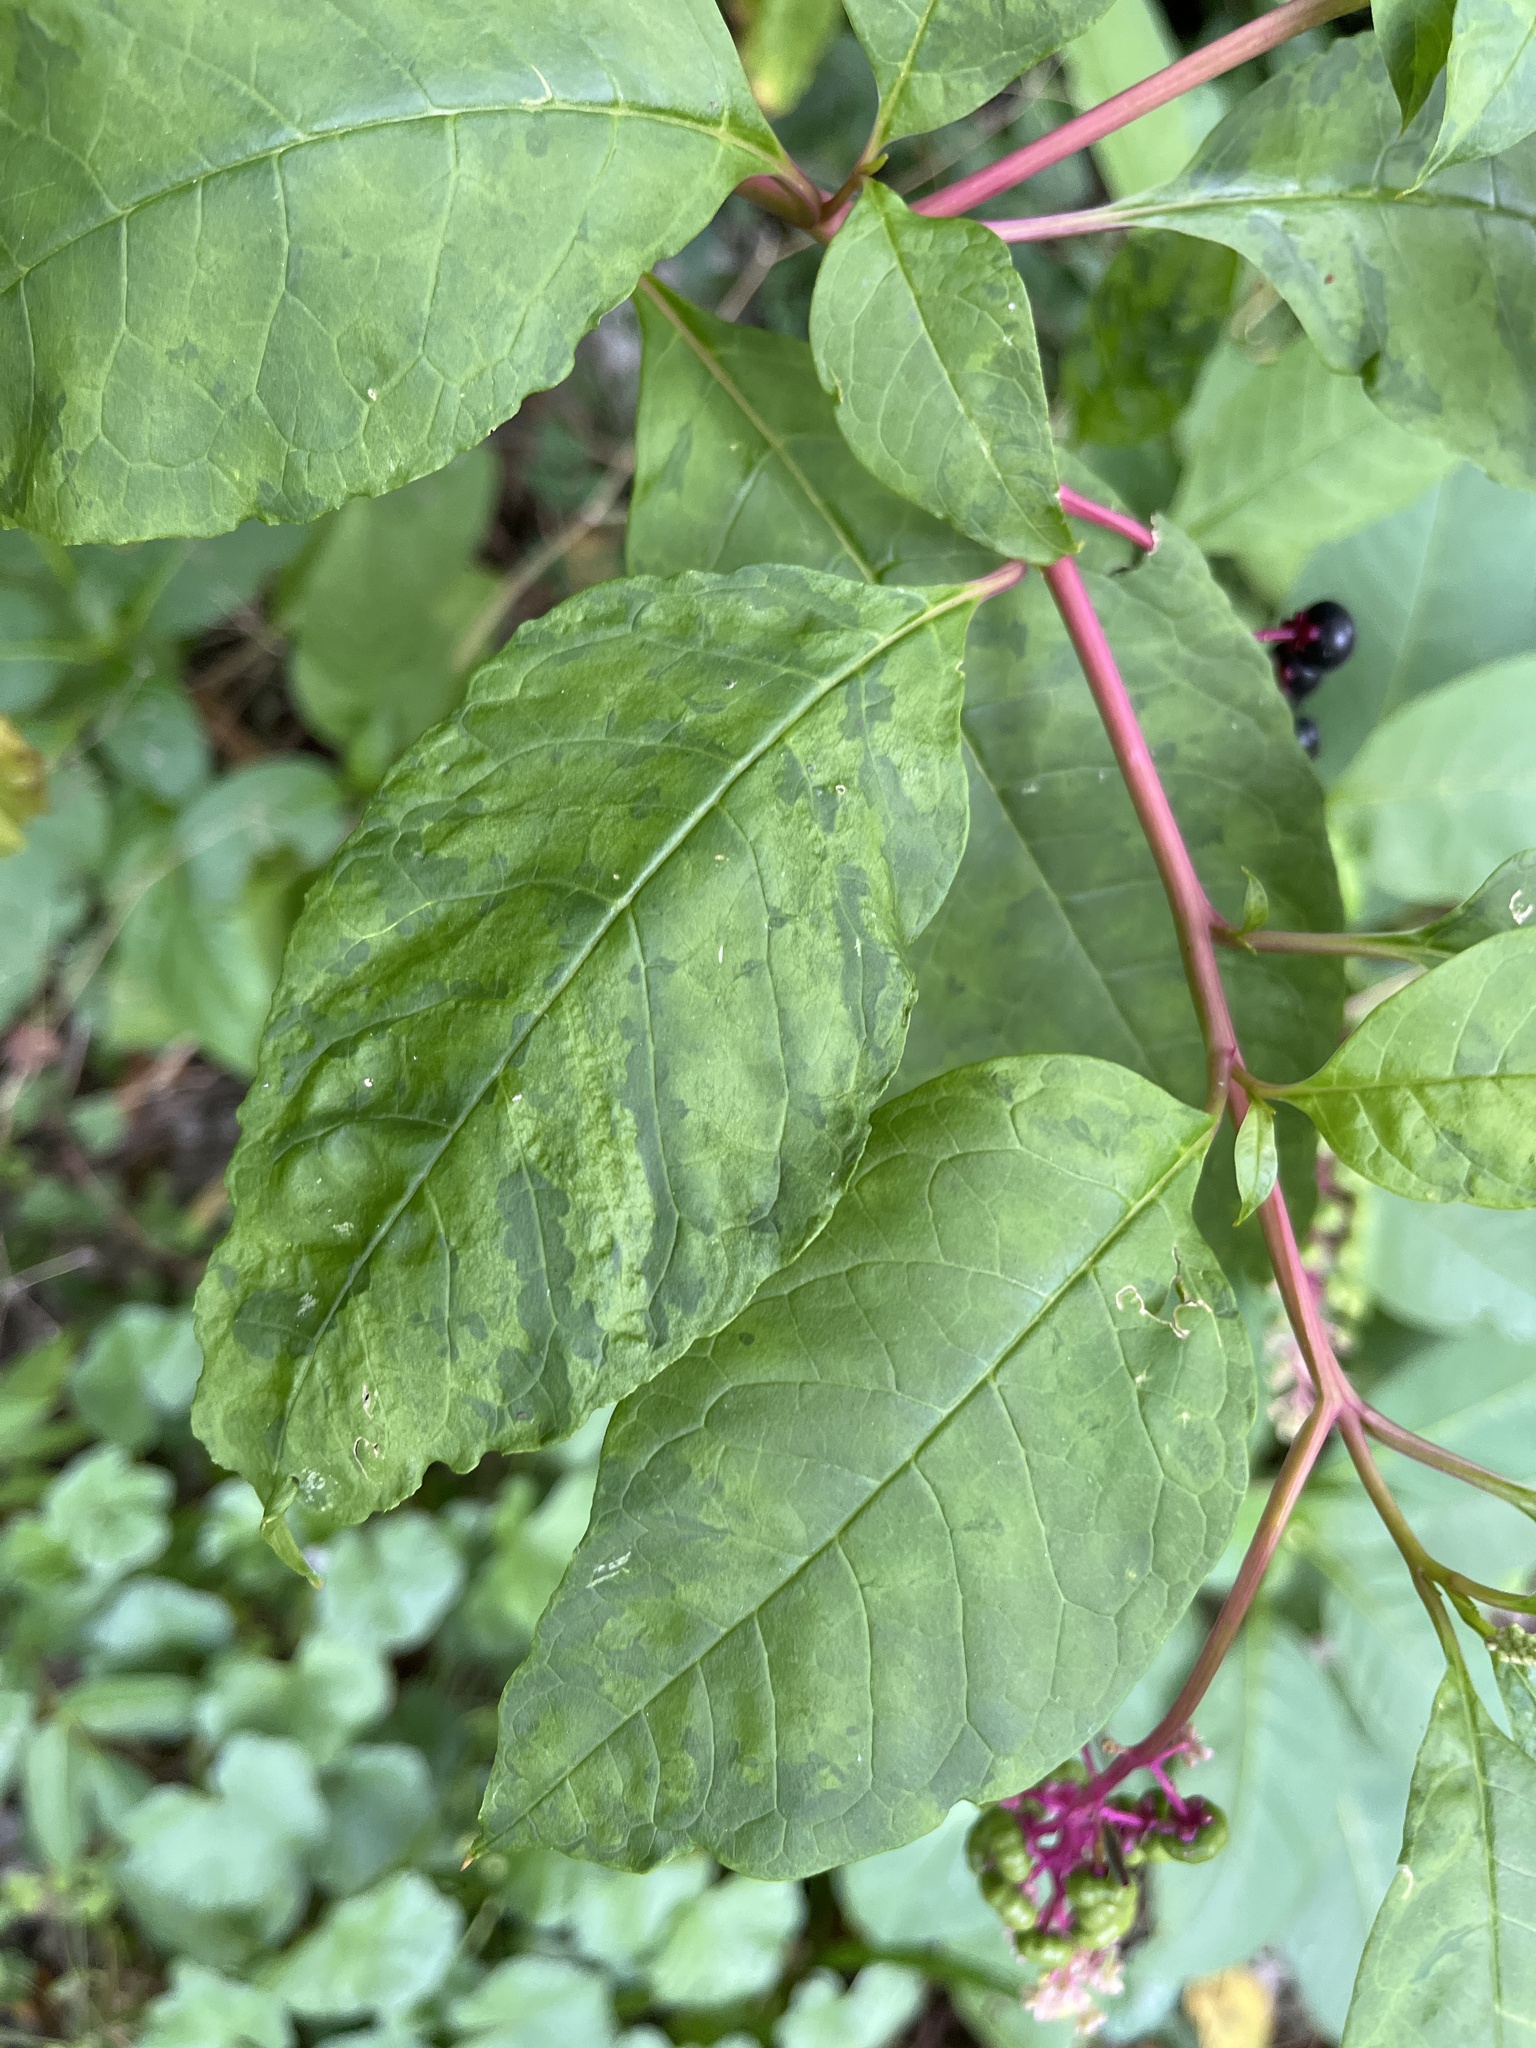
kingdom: Viruses
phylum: Pisuviricota
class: Stelpaviricetes
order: Patatavirales
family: Potyviridae
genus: Potyvirus
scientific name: Potyvirus Pokeweed mosaic virus
